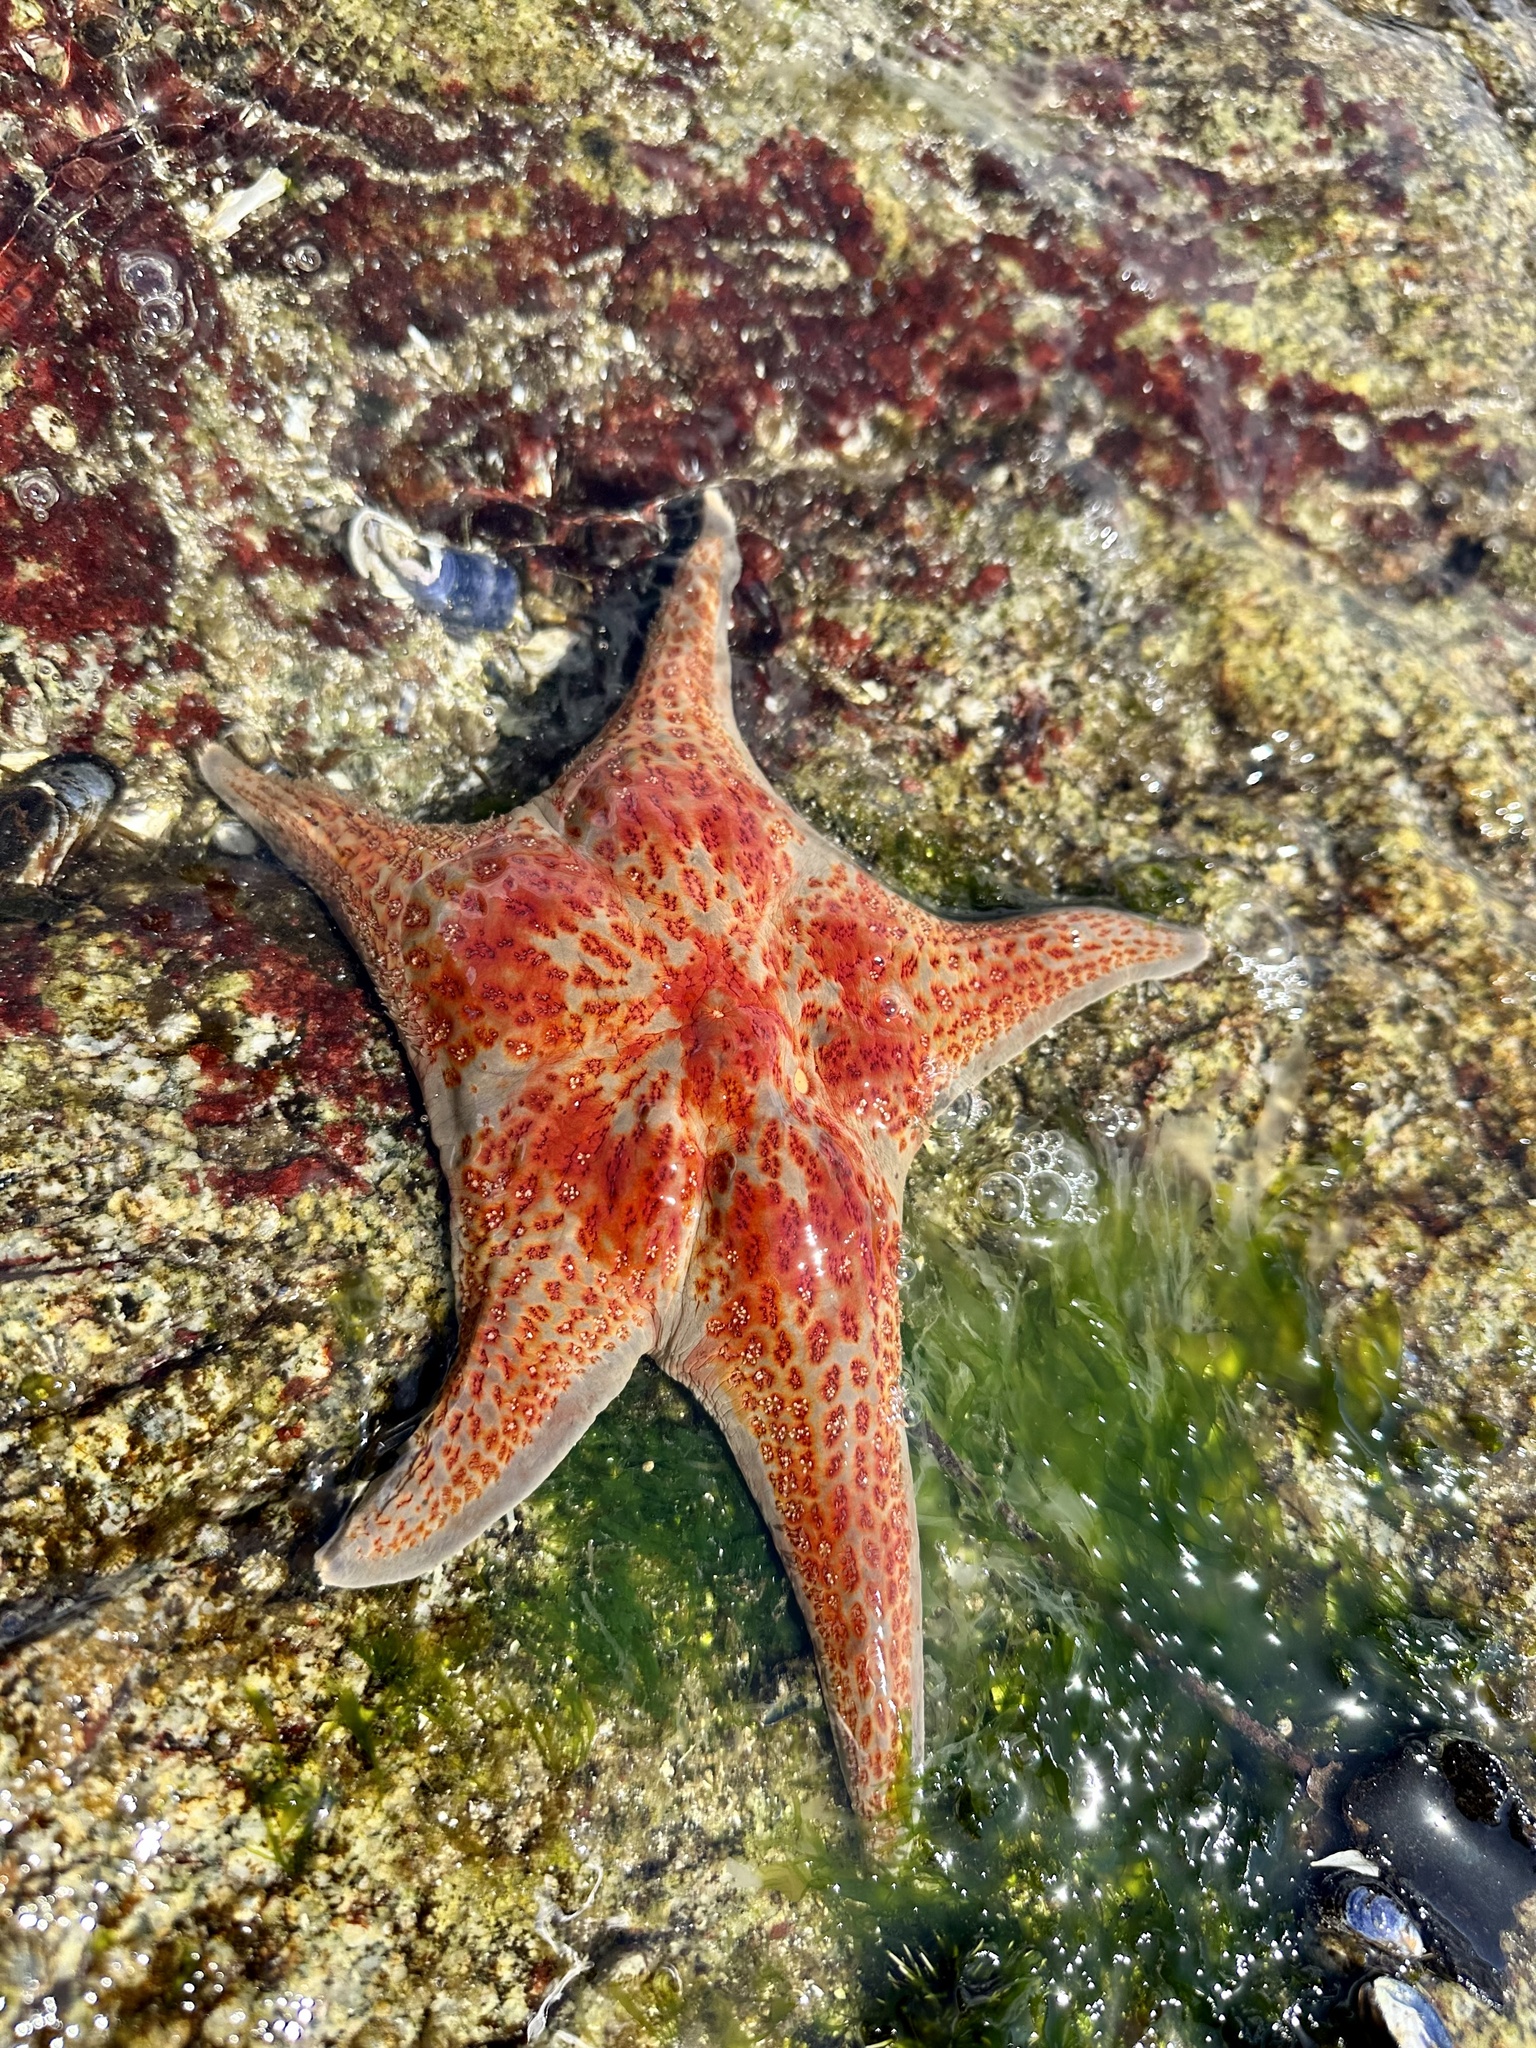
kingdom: Animalia
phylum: Echinodermata
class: Asteroidea
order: Valvatida
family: Asteropseidae
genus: Dermasterias
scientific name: Dermasterias imbricata
